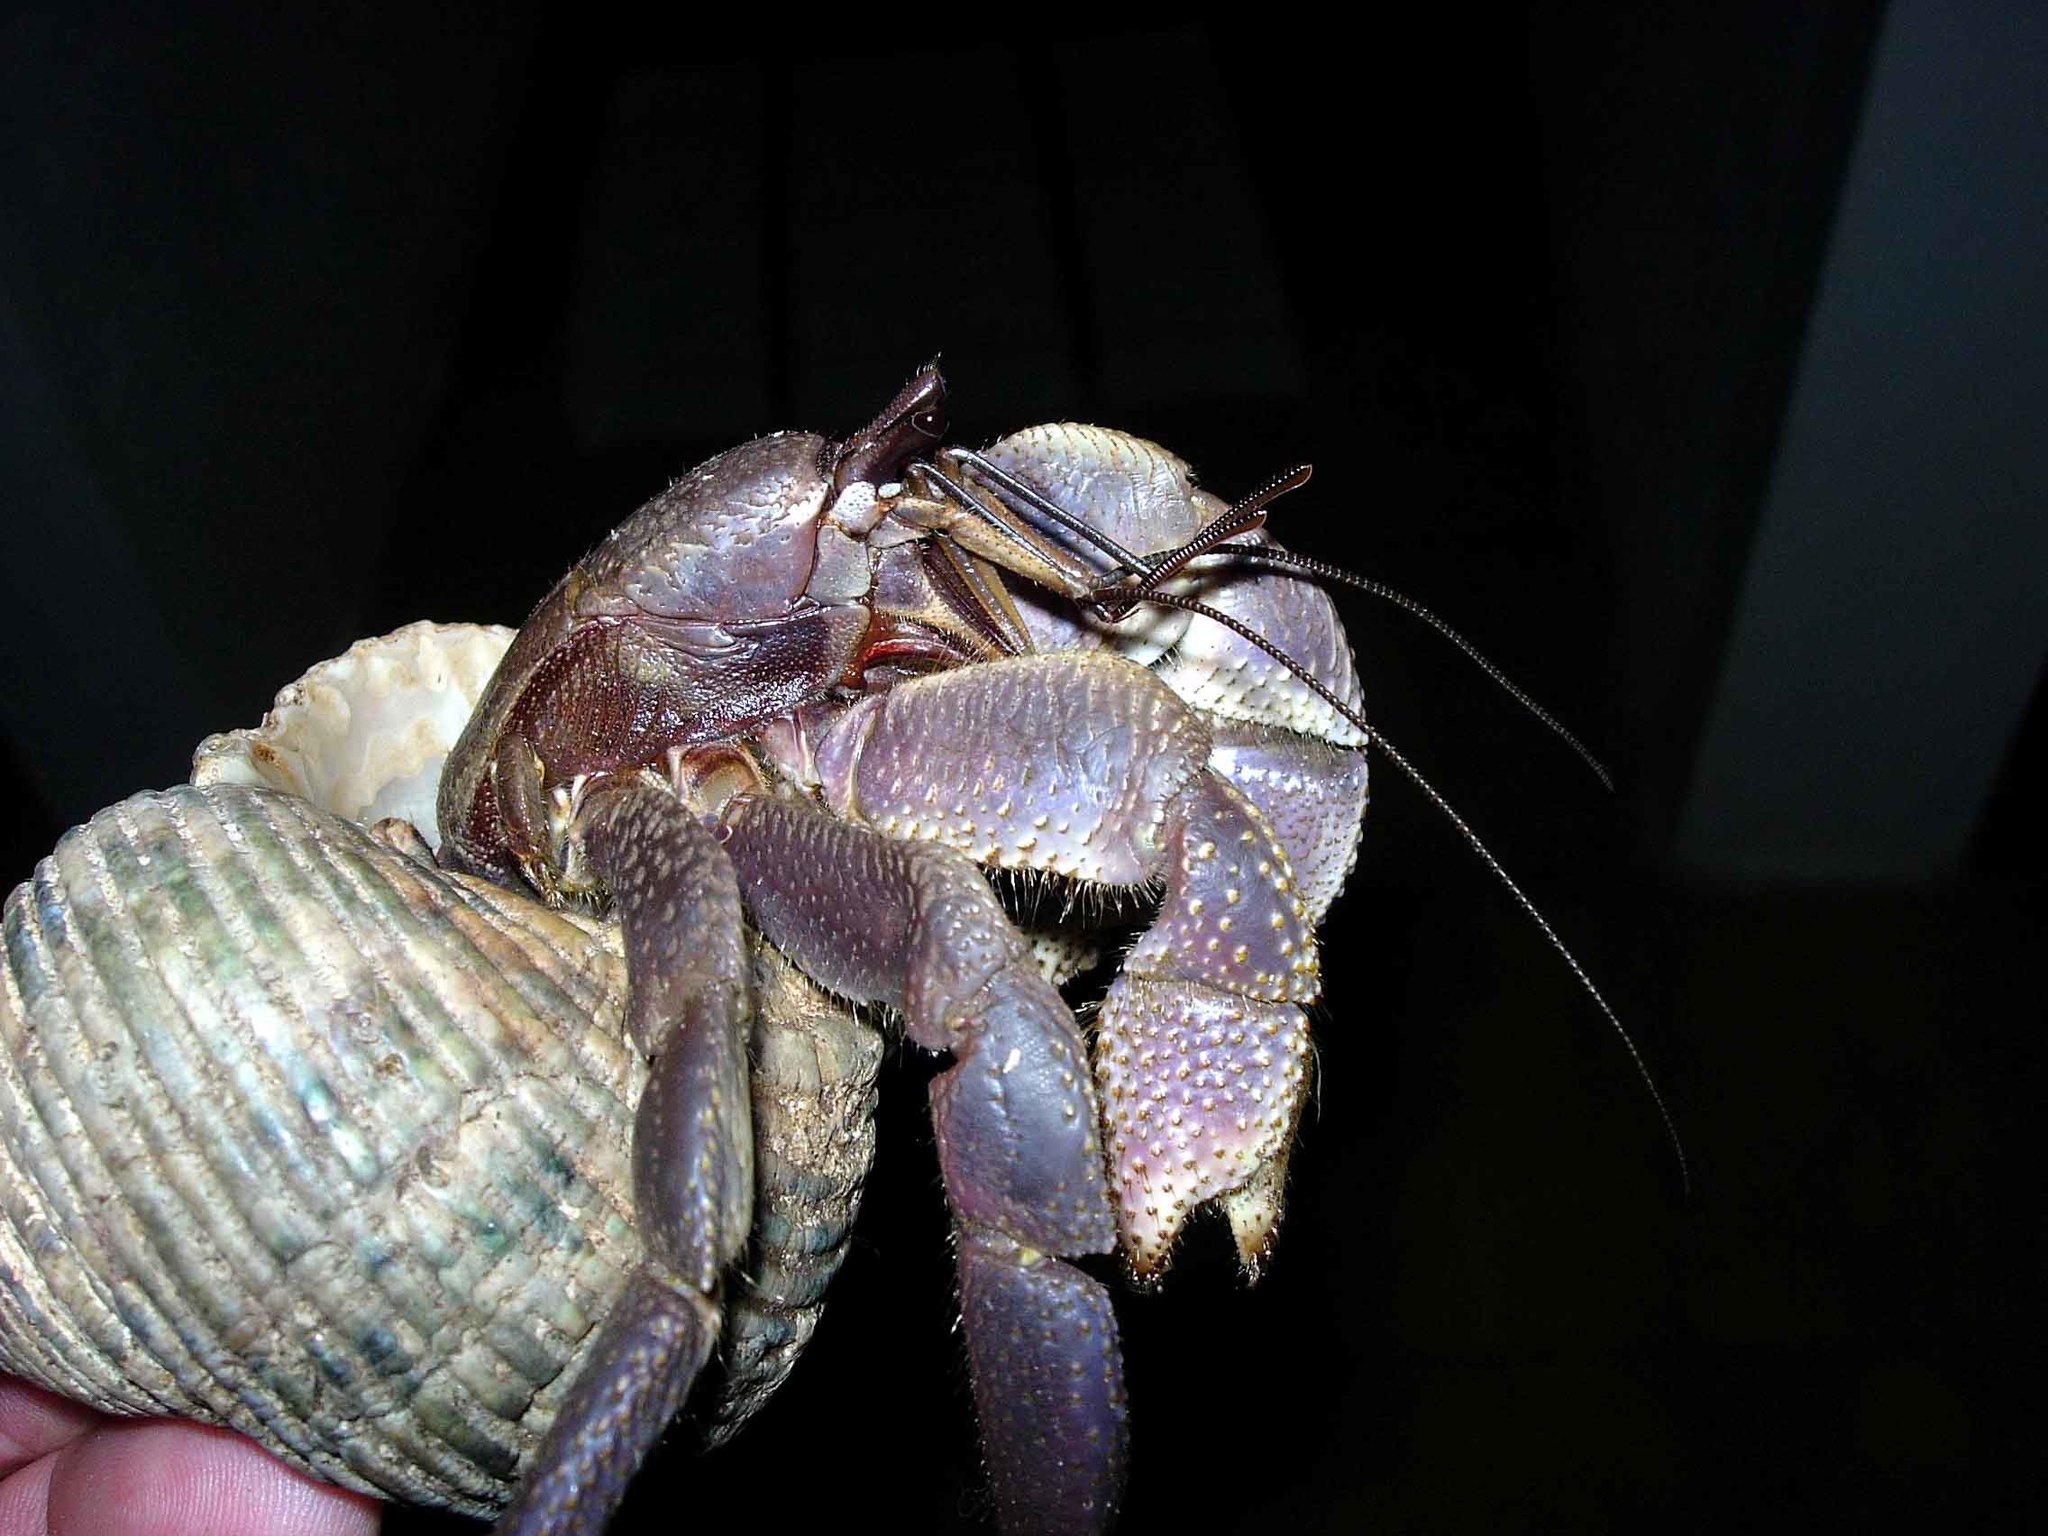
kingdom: Animalia
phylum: Arthropoda
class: Malacostraca
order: Decapoda
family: Coenobitidae
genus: Coenobita
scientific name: Coenobita brevimanus
